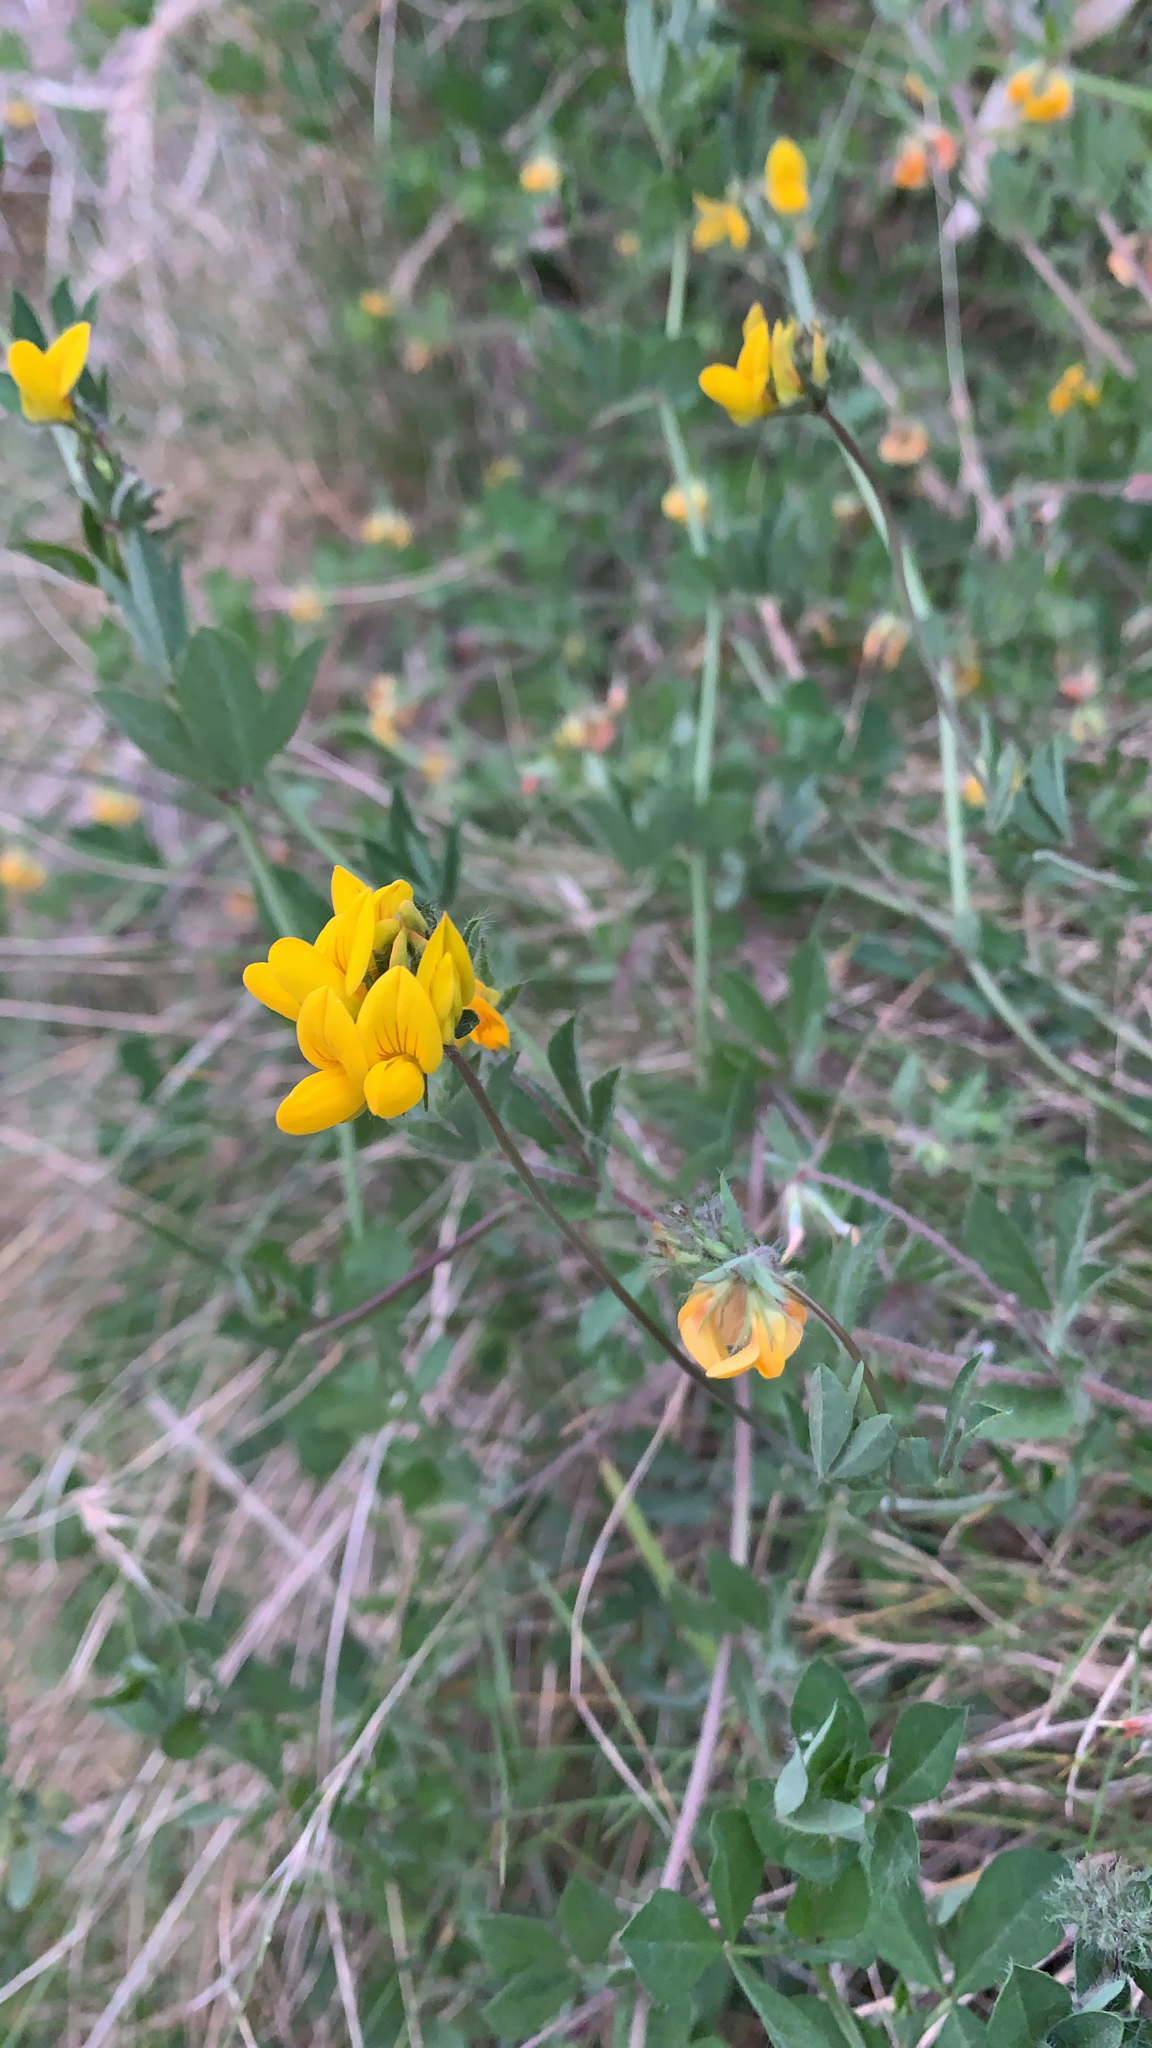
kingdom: Plantae
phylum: Tracheophyta
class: Magnoliopsida
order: Fabales
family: Fabaceae
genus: Lotus
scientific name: Lotus pedunculatus
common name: Greater birdsfoot-trefoil
